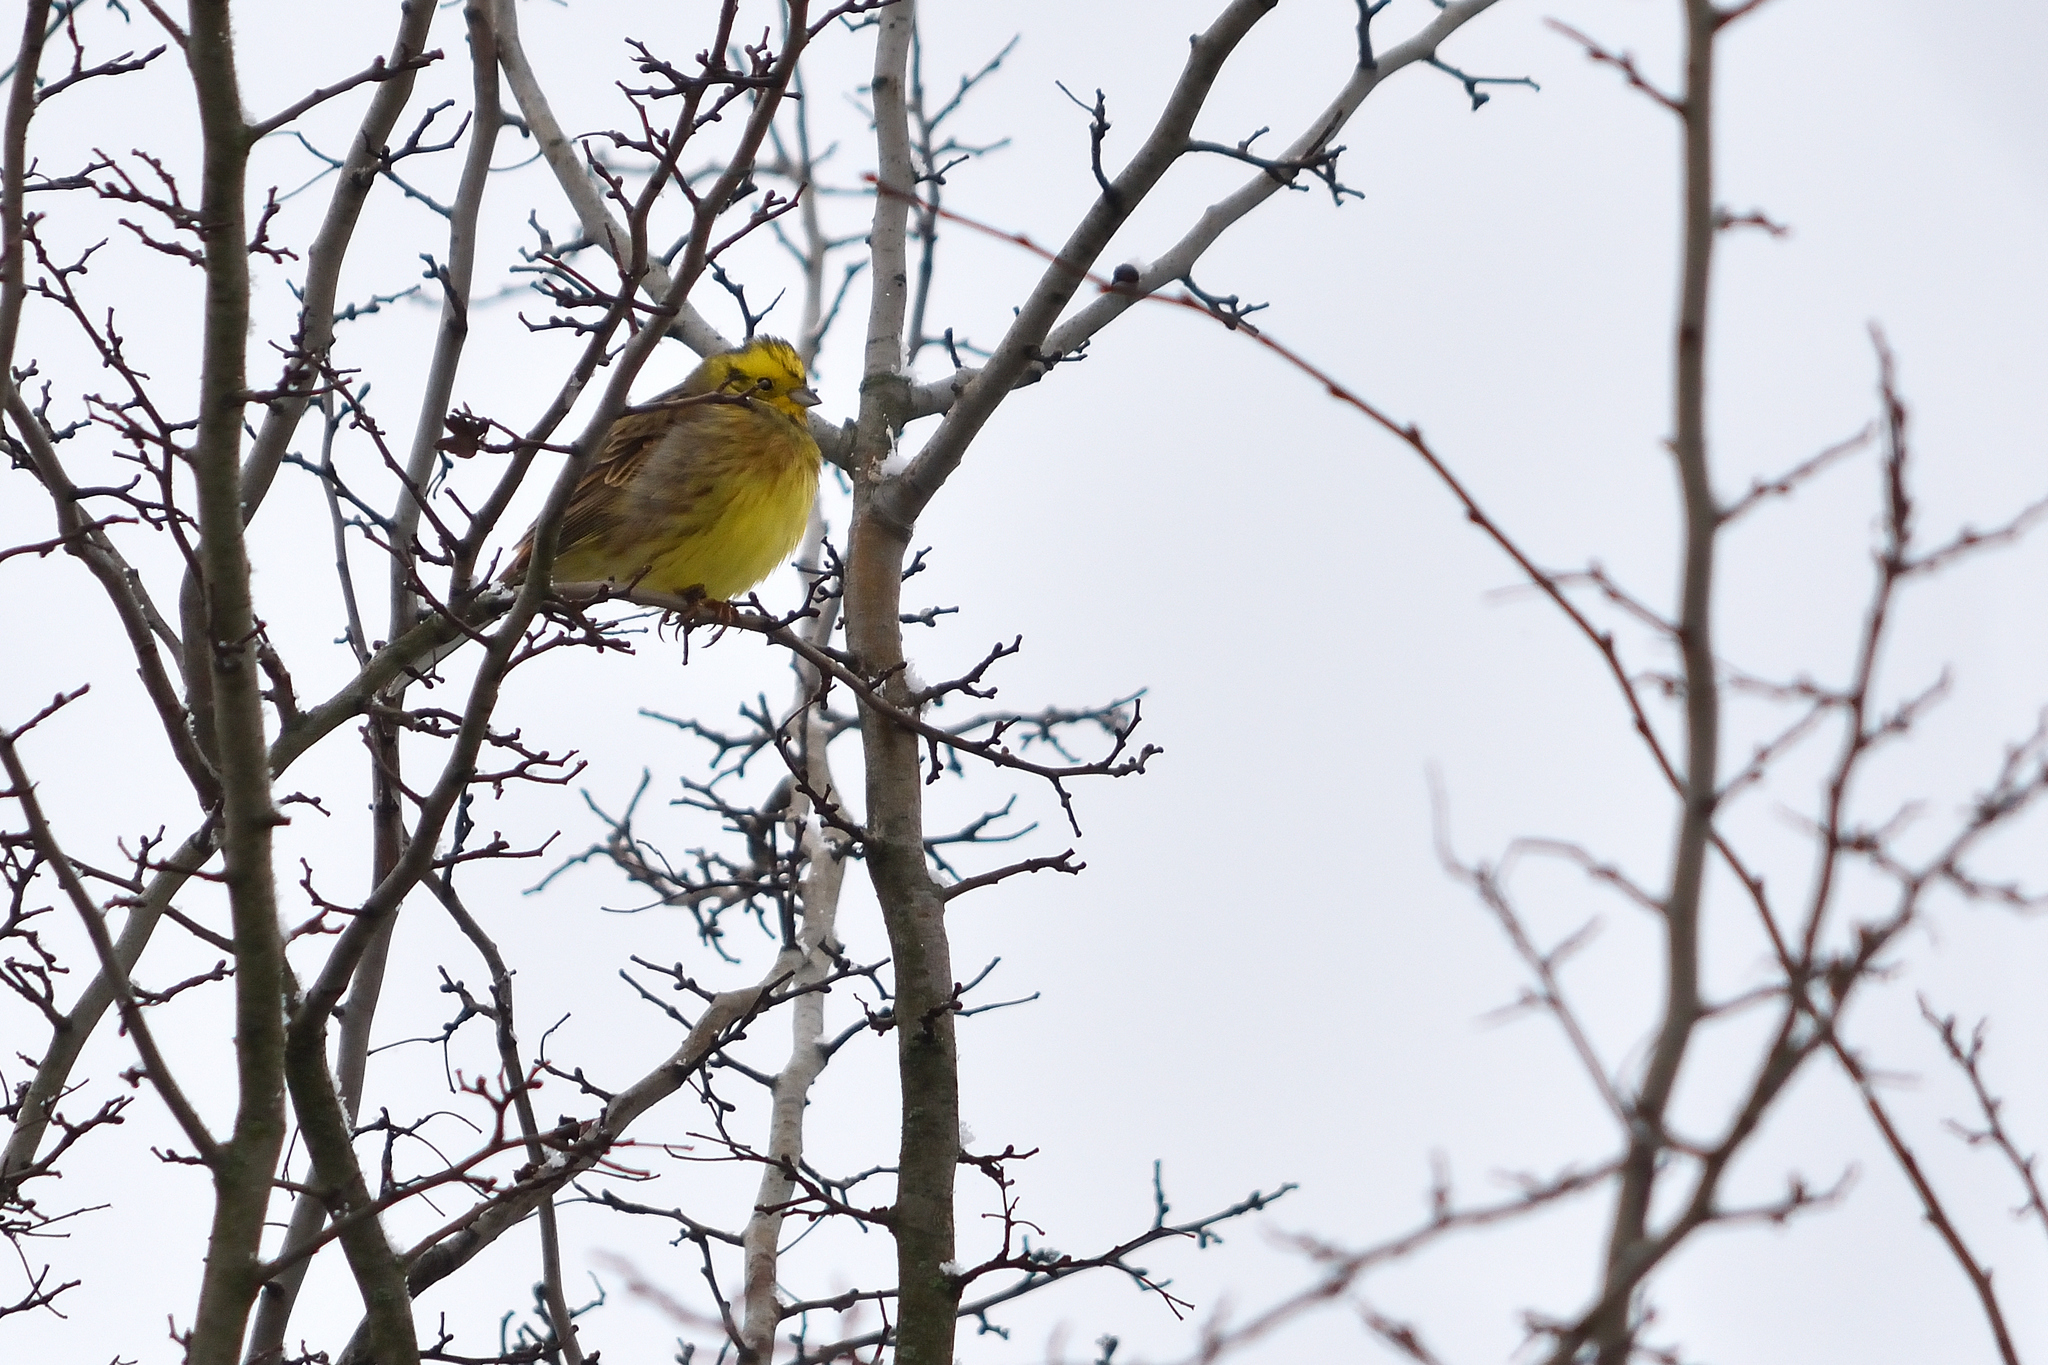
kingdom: Animalia
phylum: Chordata
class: Aves
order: Passeriformes
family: Emberizidae
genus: Emberiza
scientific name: Emberiza citrinella
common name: Yellowhammer
